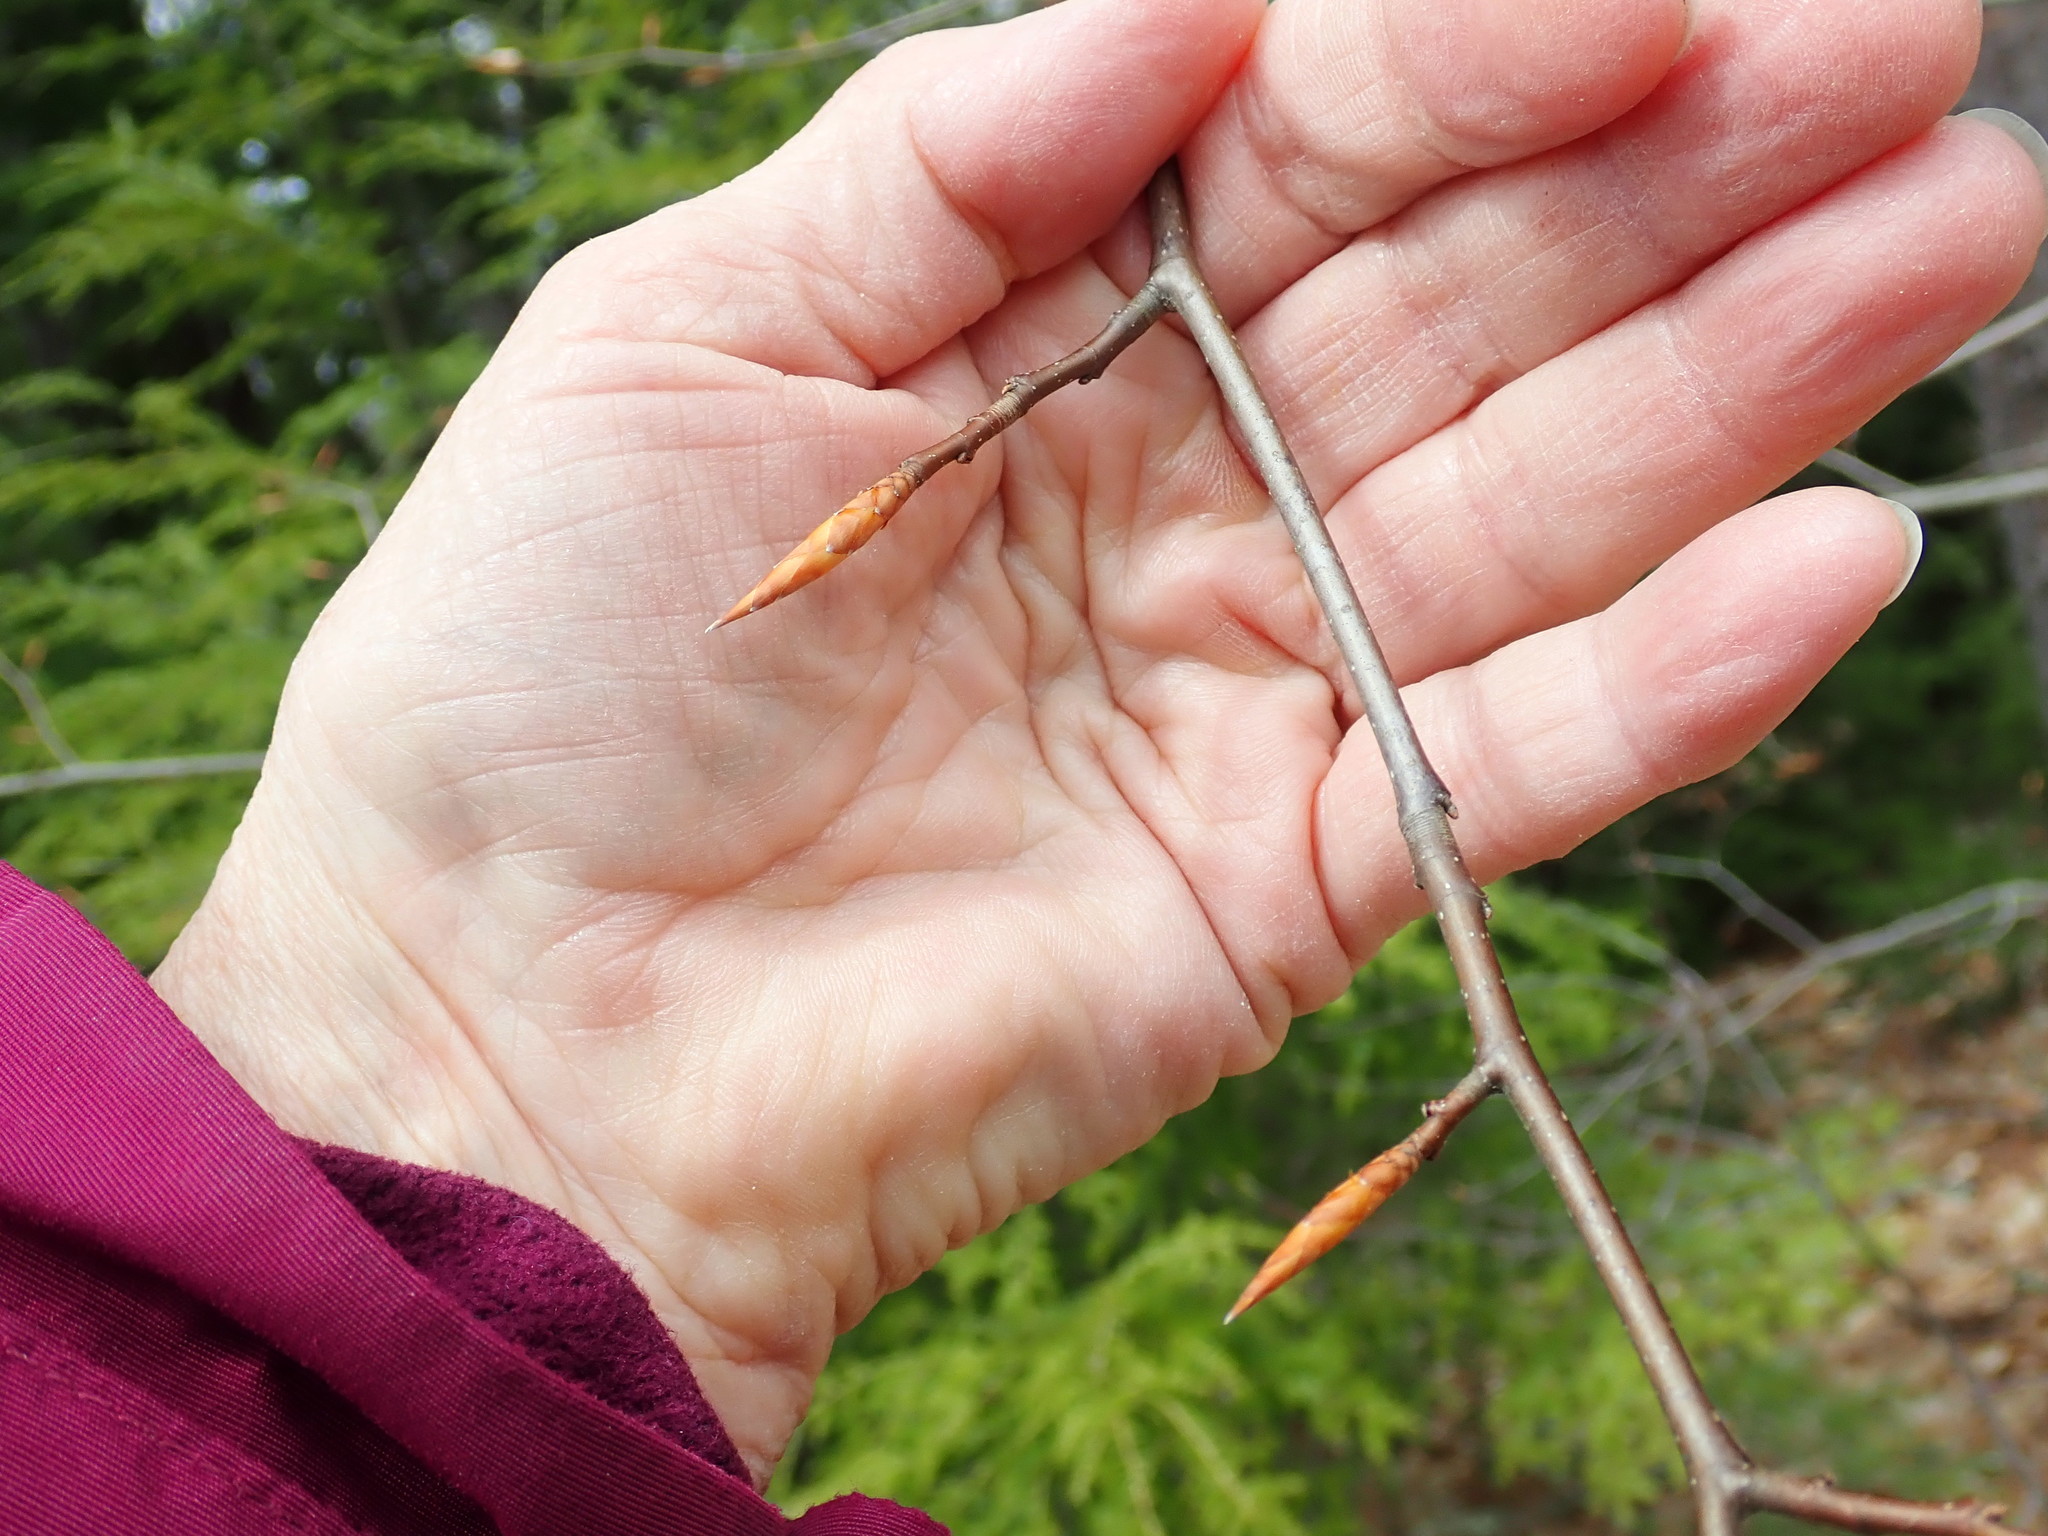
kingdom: Plantae
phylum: Tracheophyta
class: Magnoliopsida
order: Fagales
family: Fagaceae
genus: Fagus
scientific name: Fagus grandifolia
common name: American beech
